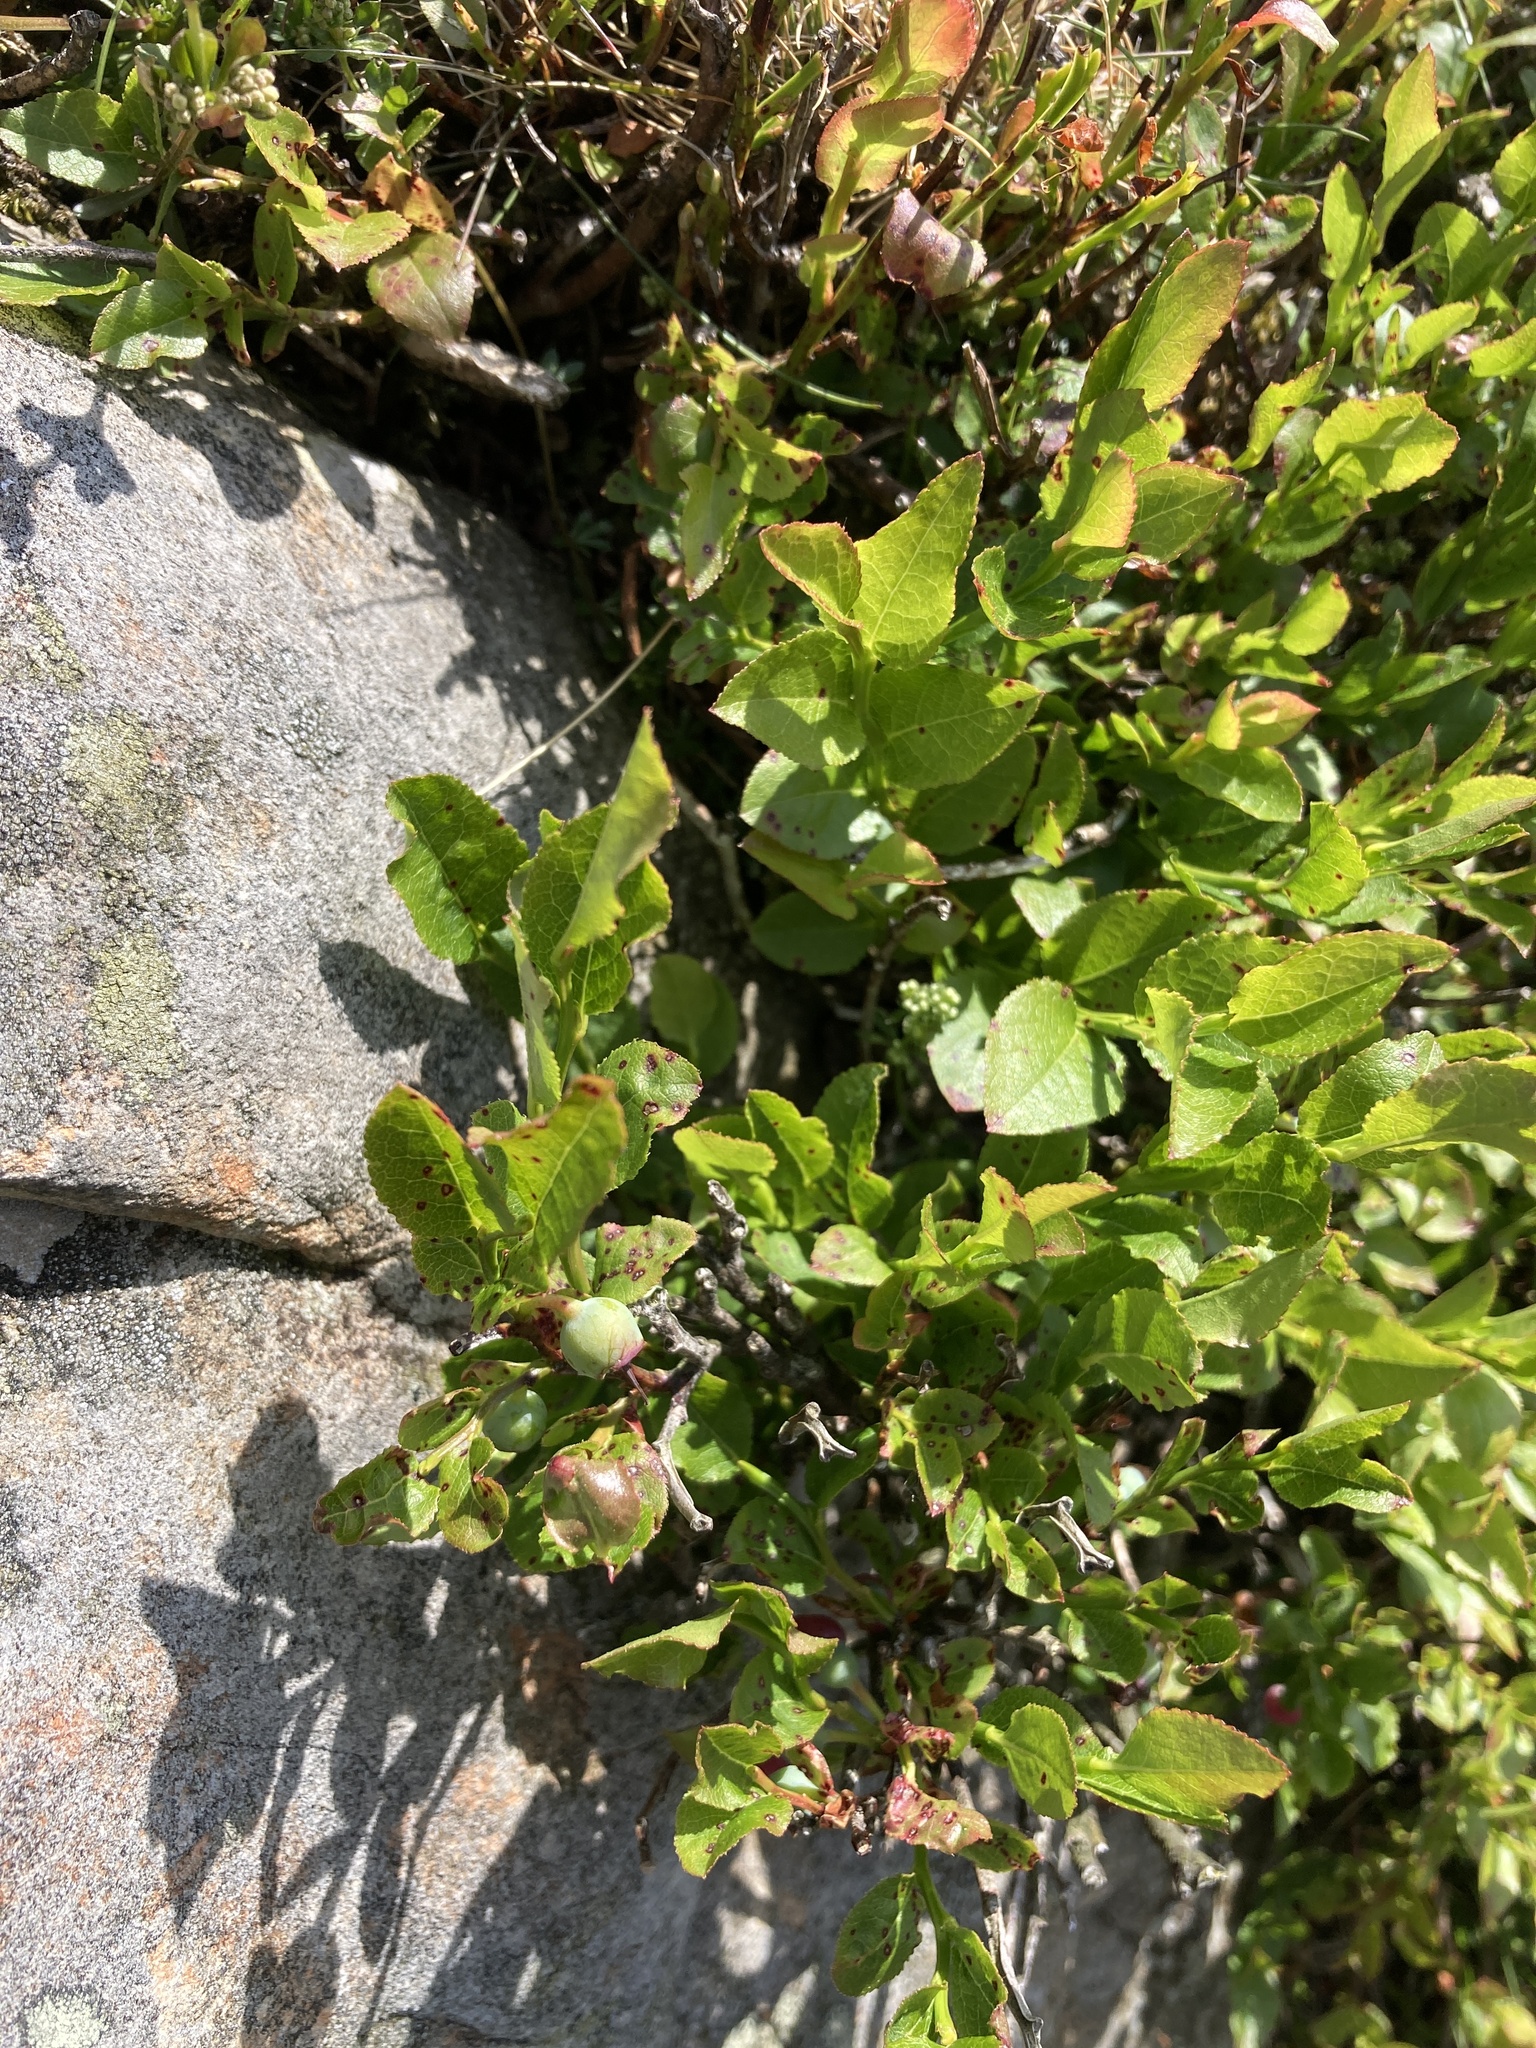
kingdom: Plantae
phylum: Tracheophyta
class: Magnoliopsida
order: Ericales
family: Ericaceae
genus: Vaccinium
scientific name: Vaccinium myrtillus
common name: Bilberry
